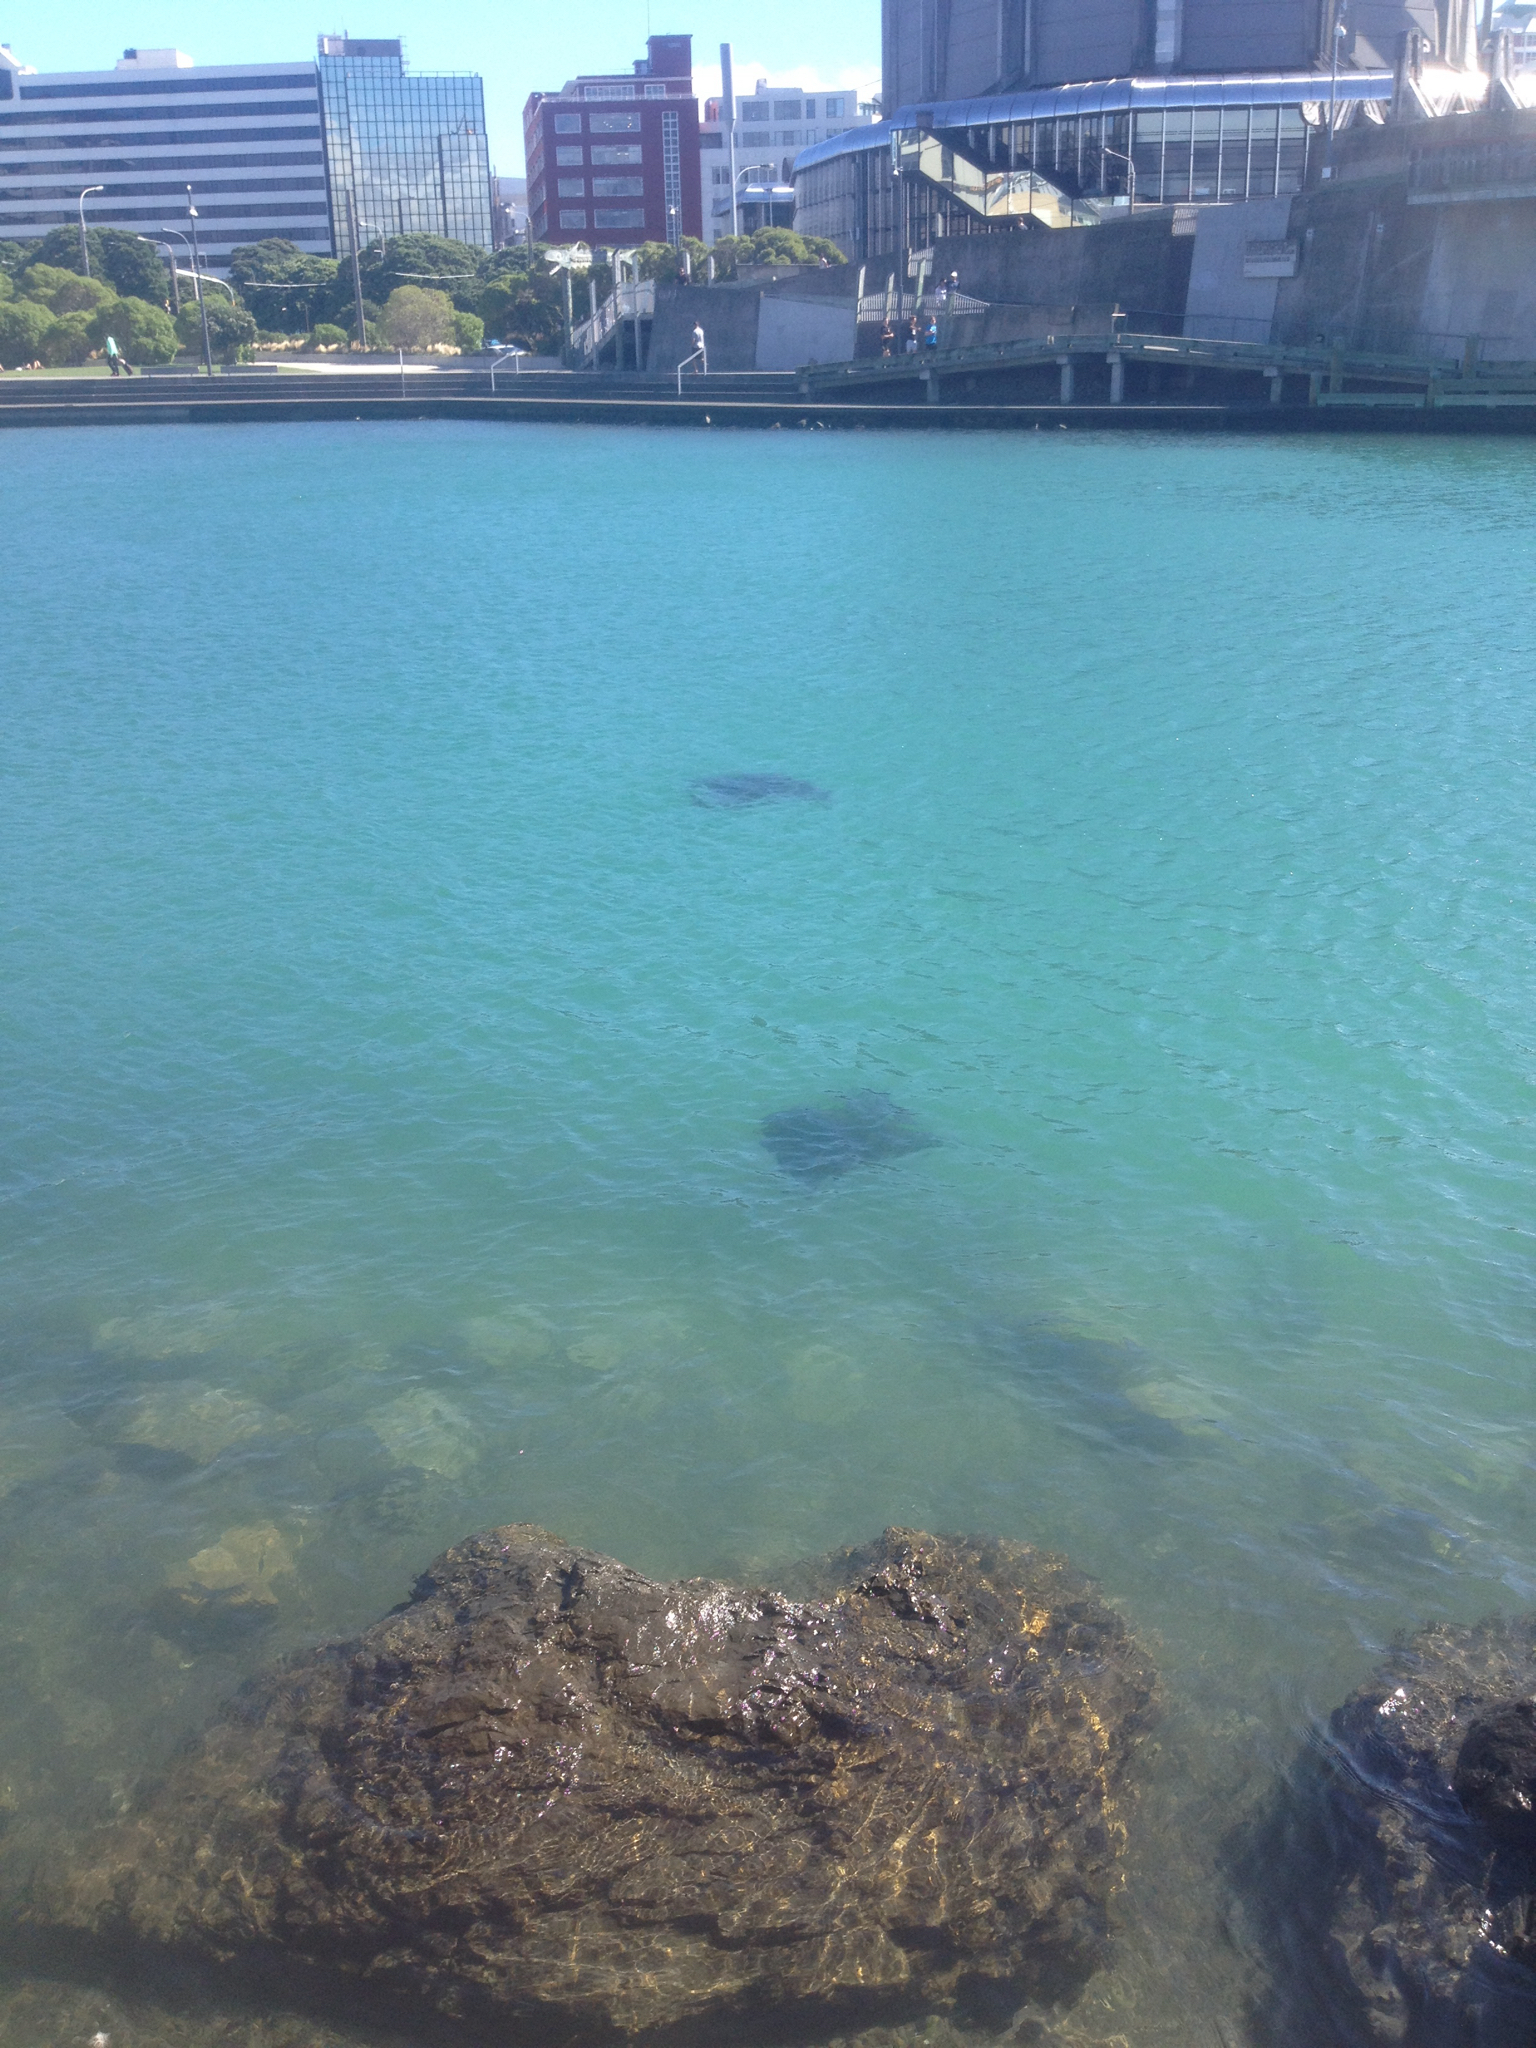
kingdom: Animalia
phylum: Chordata
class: Elasmobranchii
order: Myliobatiformes
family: Myliobatidae
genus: Myliobatis
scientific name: Myliobatis tenuicaudatus
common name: Eagle ray
